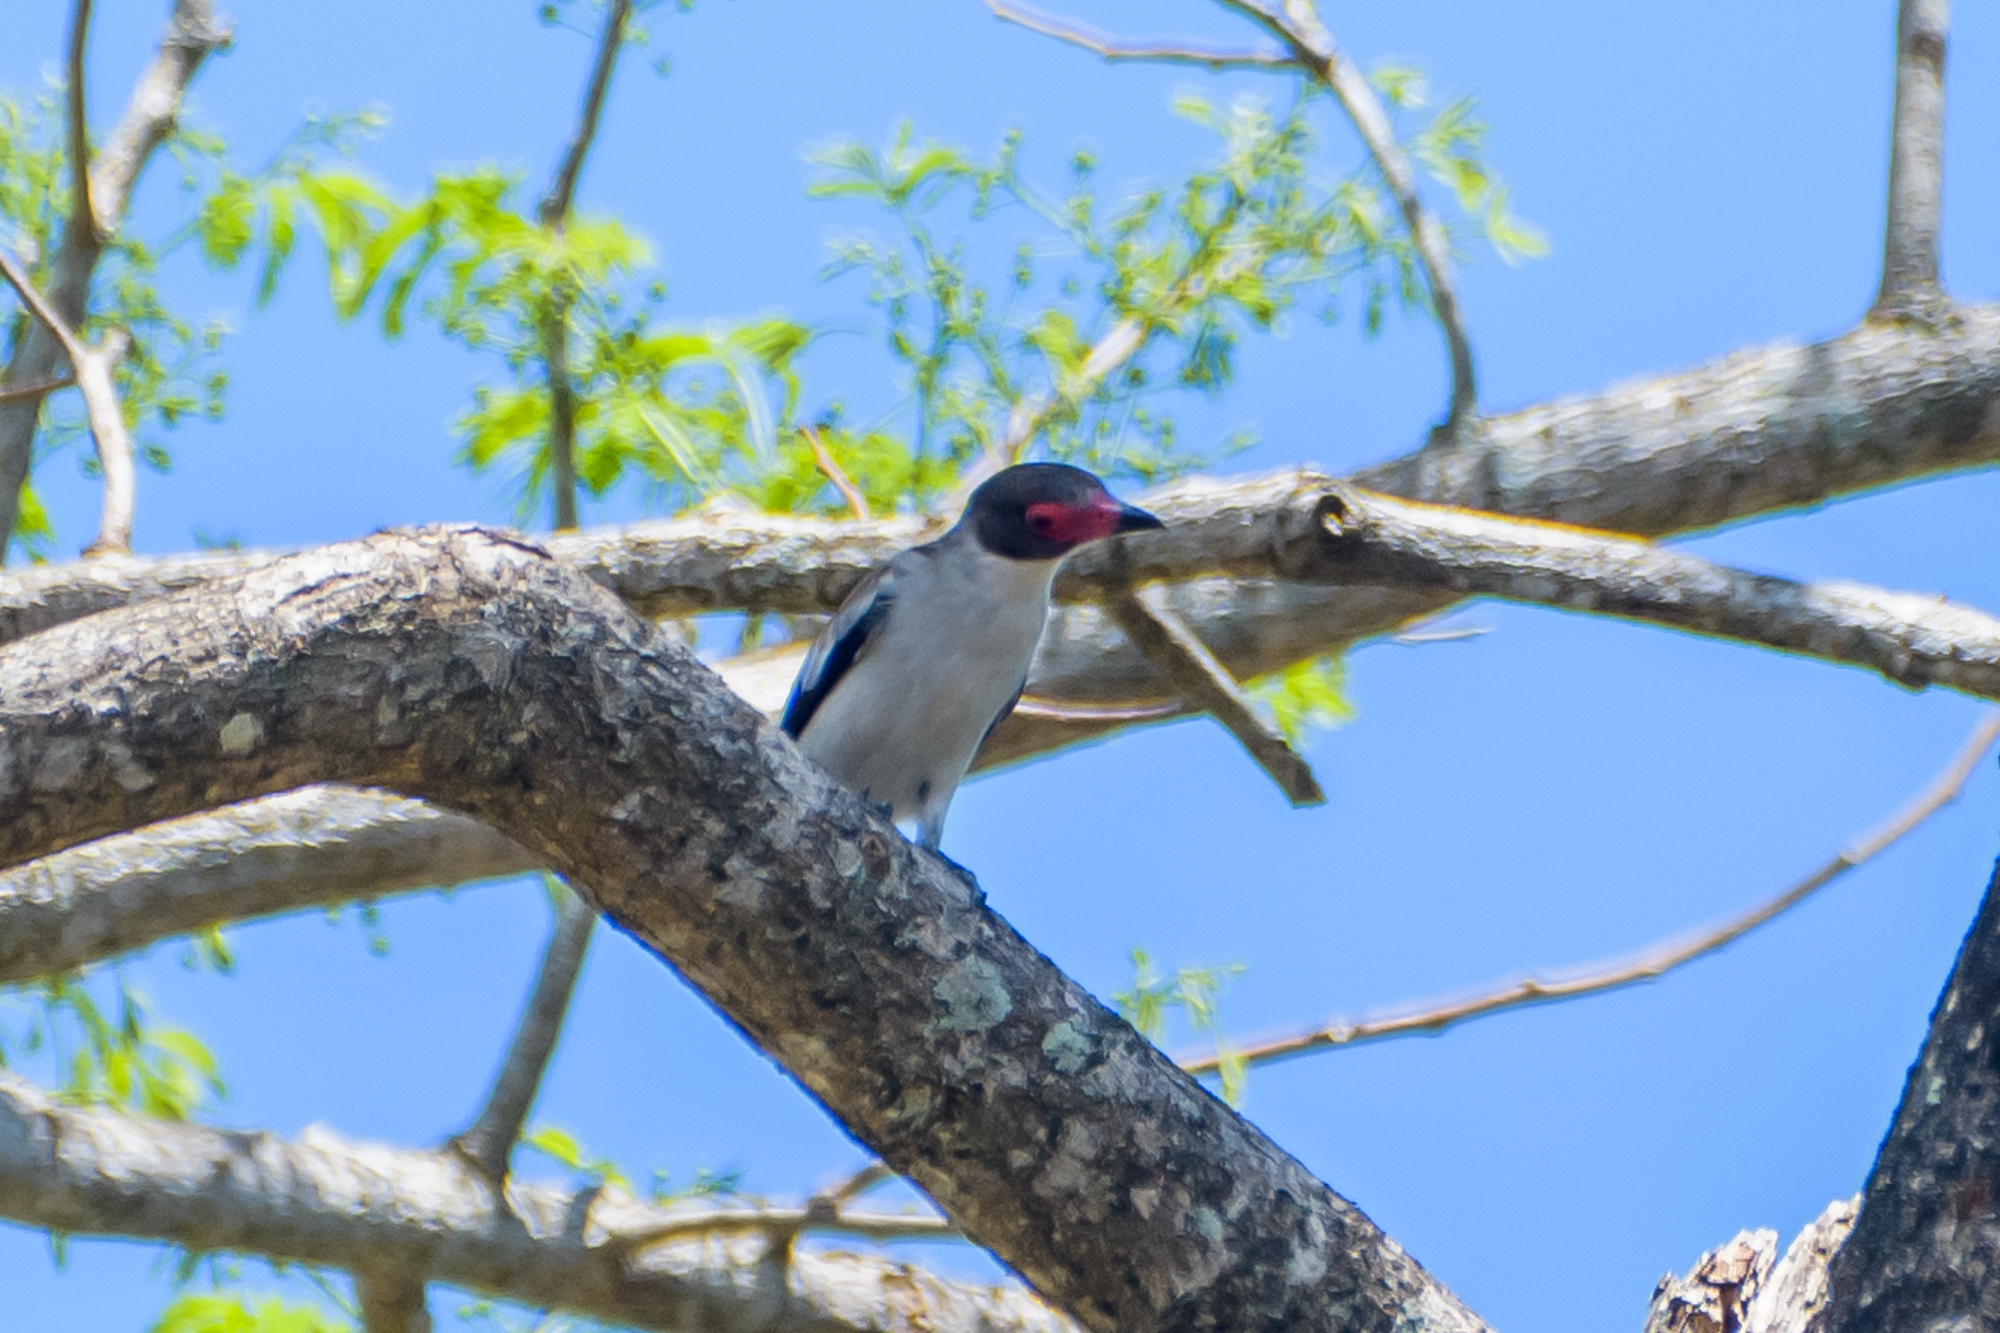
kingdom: Animalia
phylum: Chordata
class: Aves
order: Passeriformes
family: Cotingidae
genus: Tityra
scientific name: Tityra semifasciata
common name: Masked tityra
